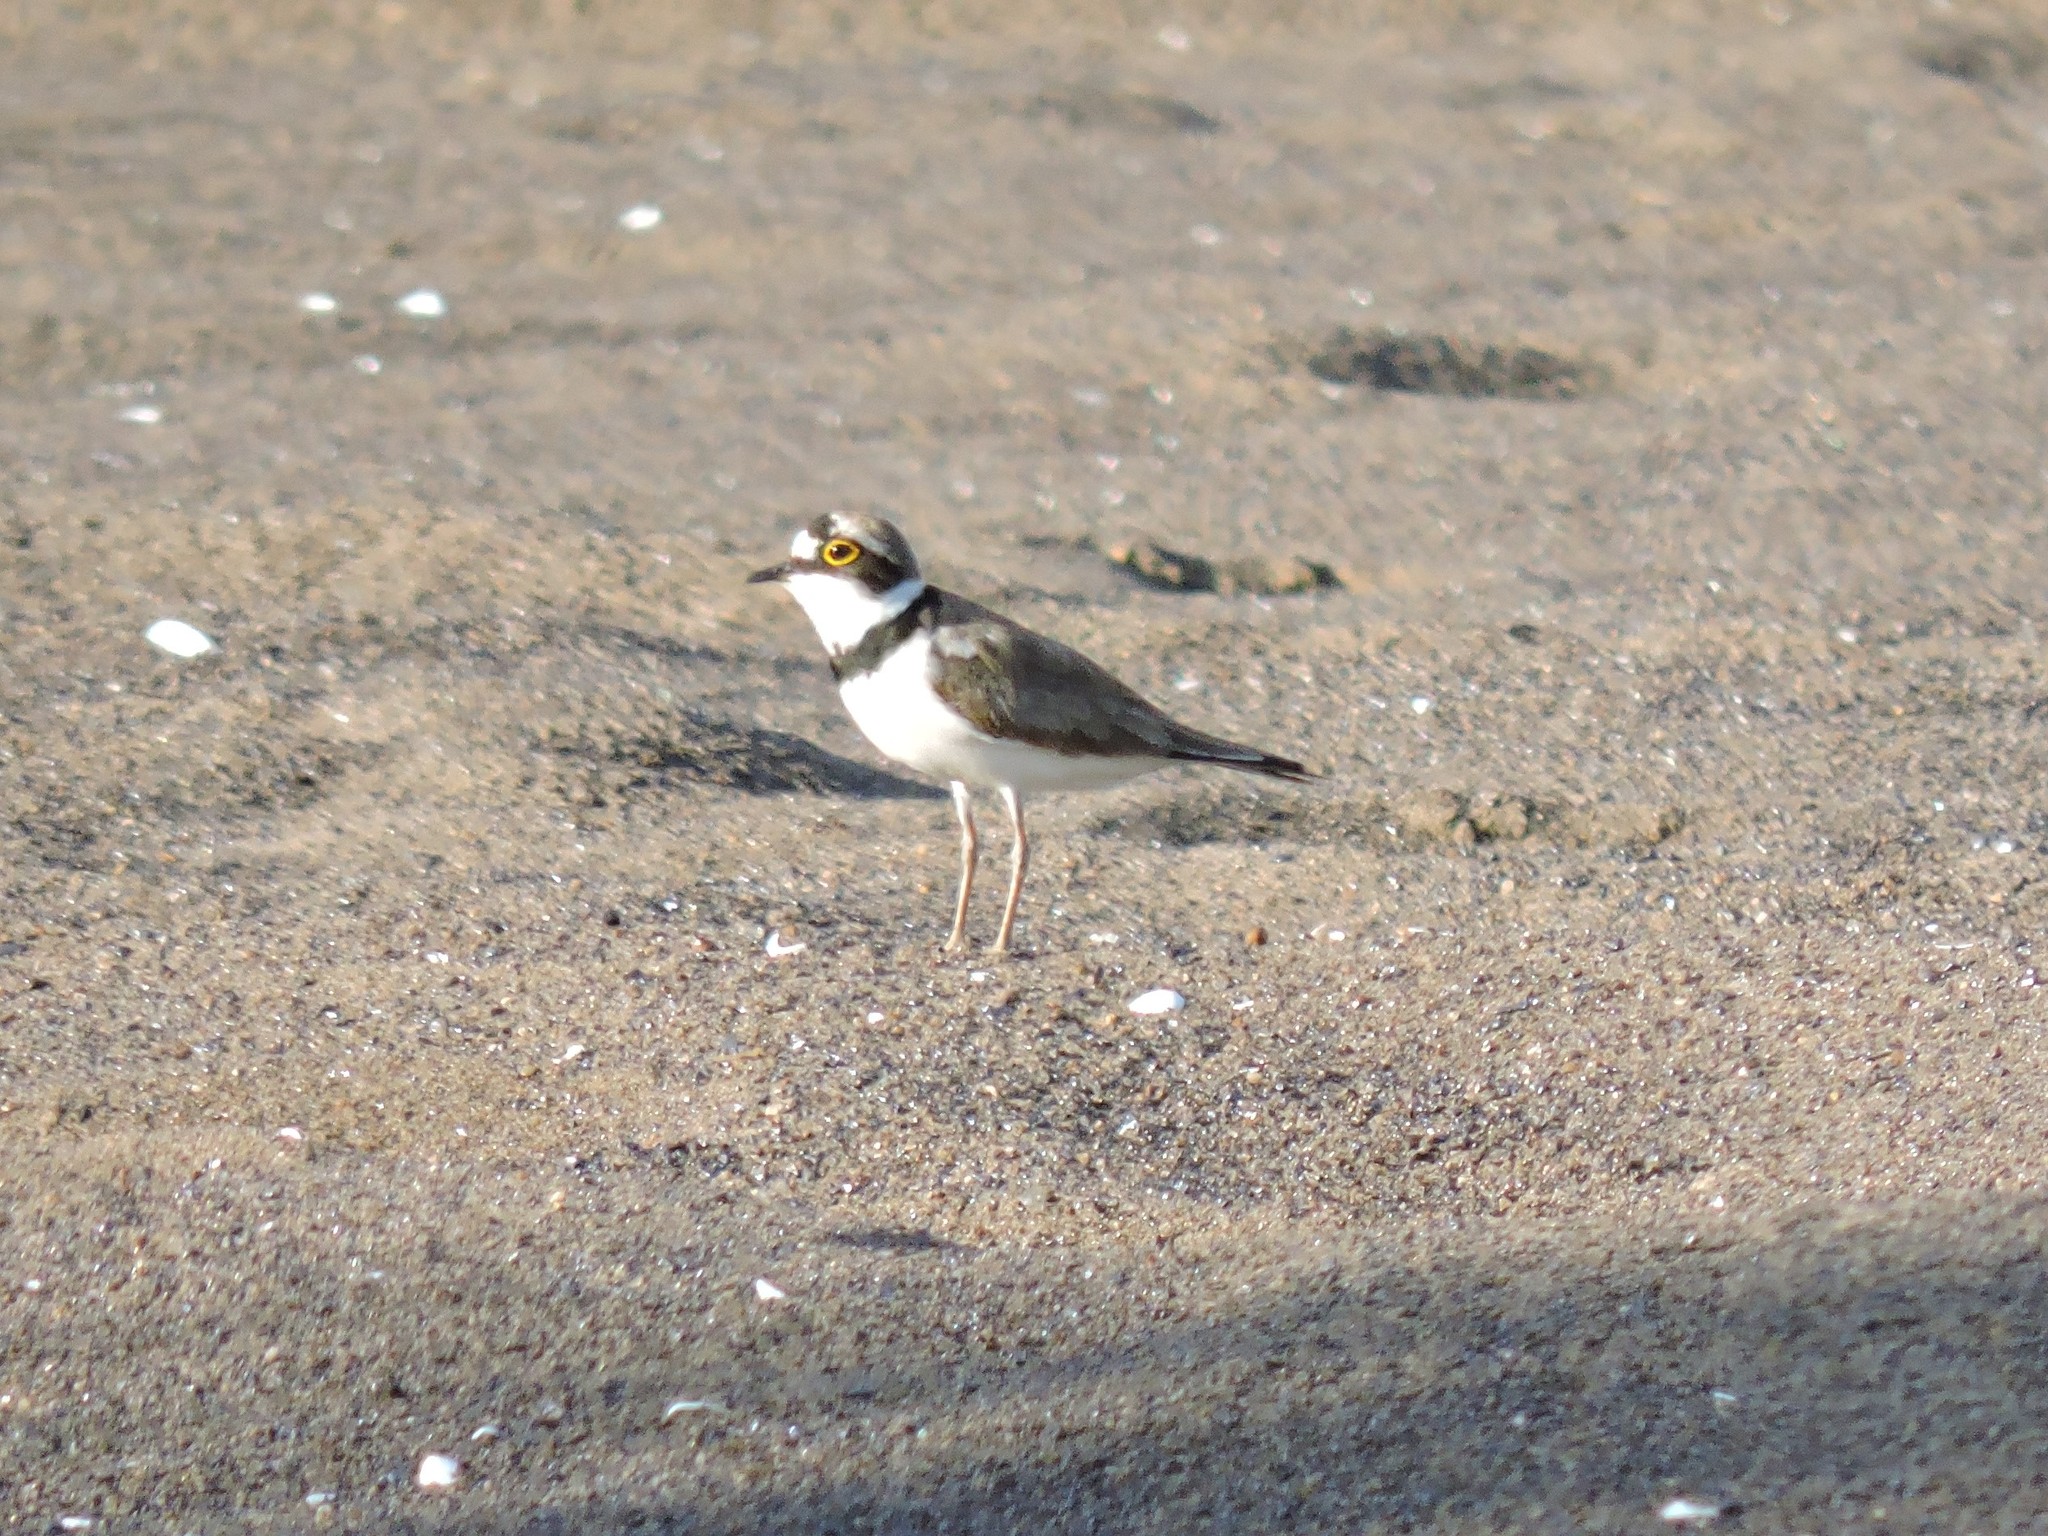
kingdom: Animalia
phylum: Chordata
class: Aves
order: Charadriiformes
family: Charadriidae
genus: Charadrius
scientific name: Charadrius dubius
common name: Little ringed plover
